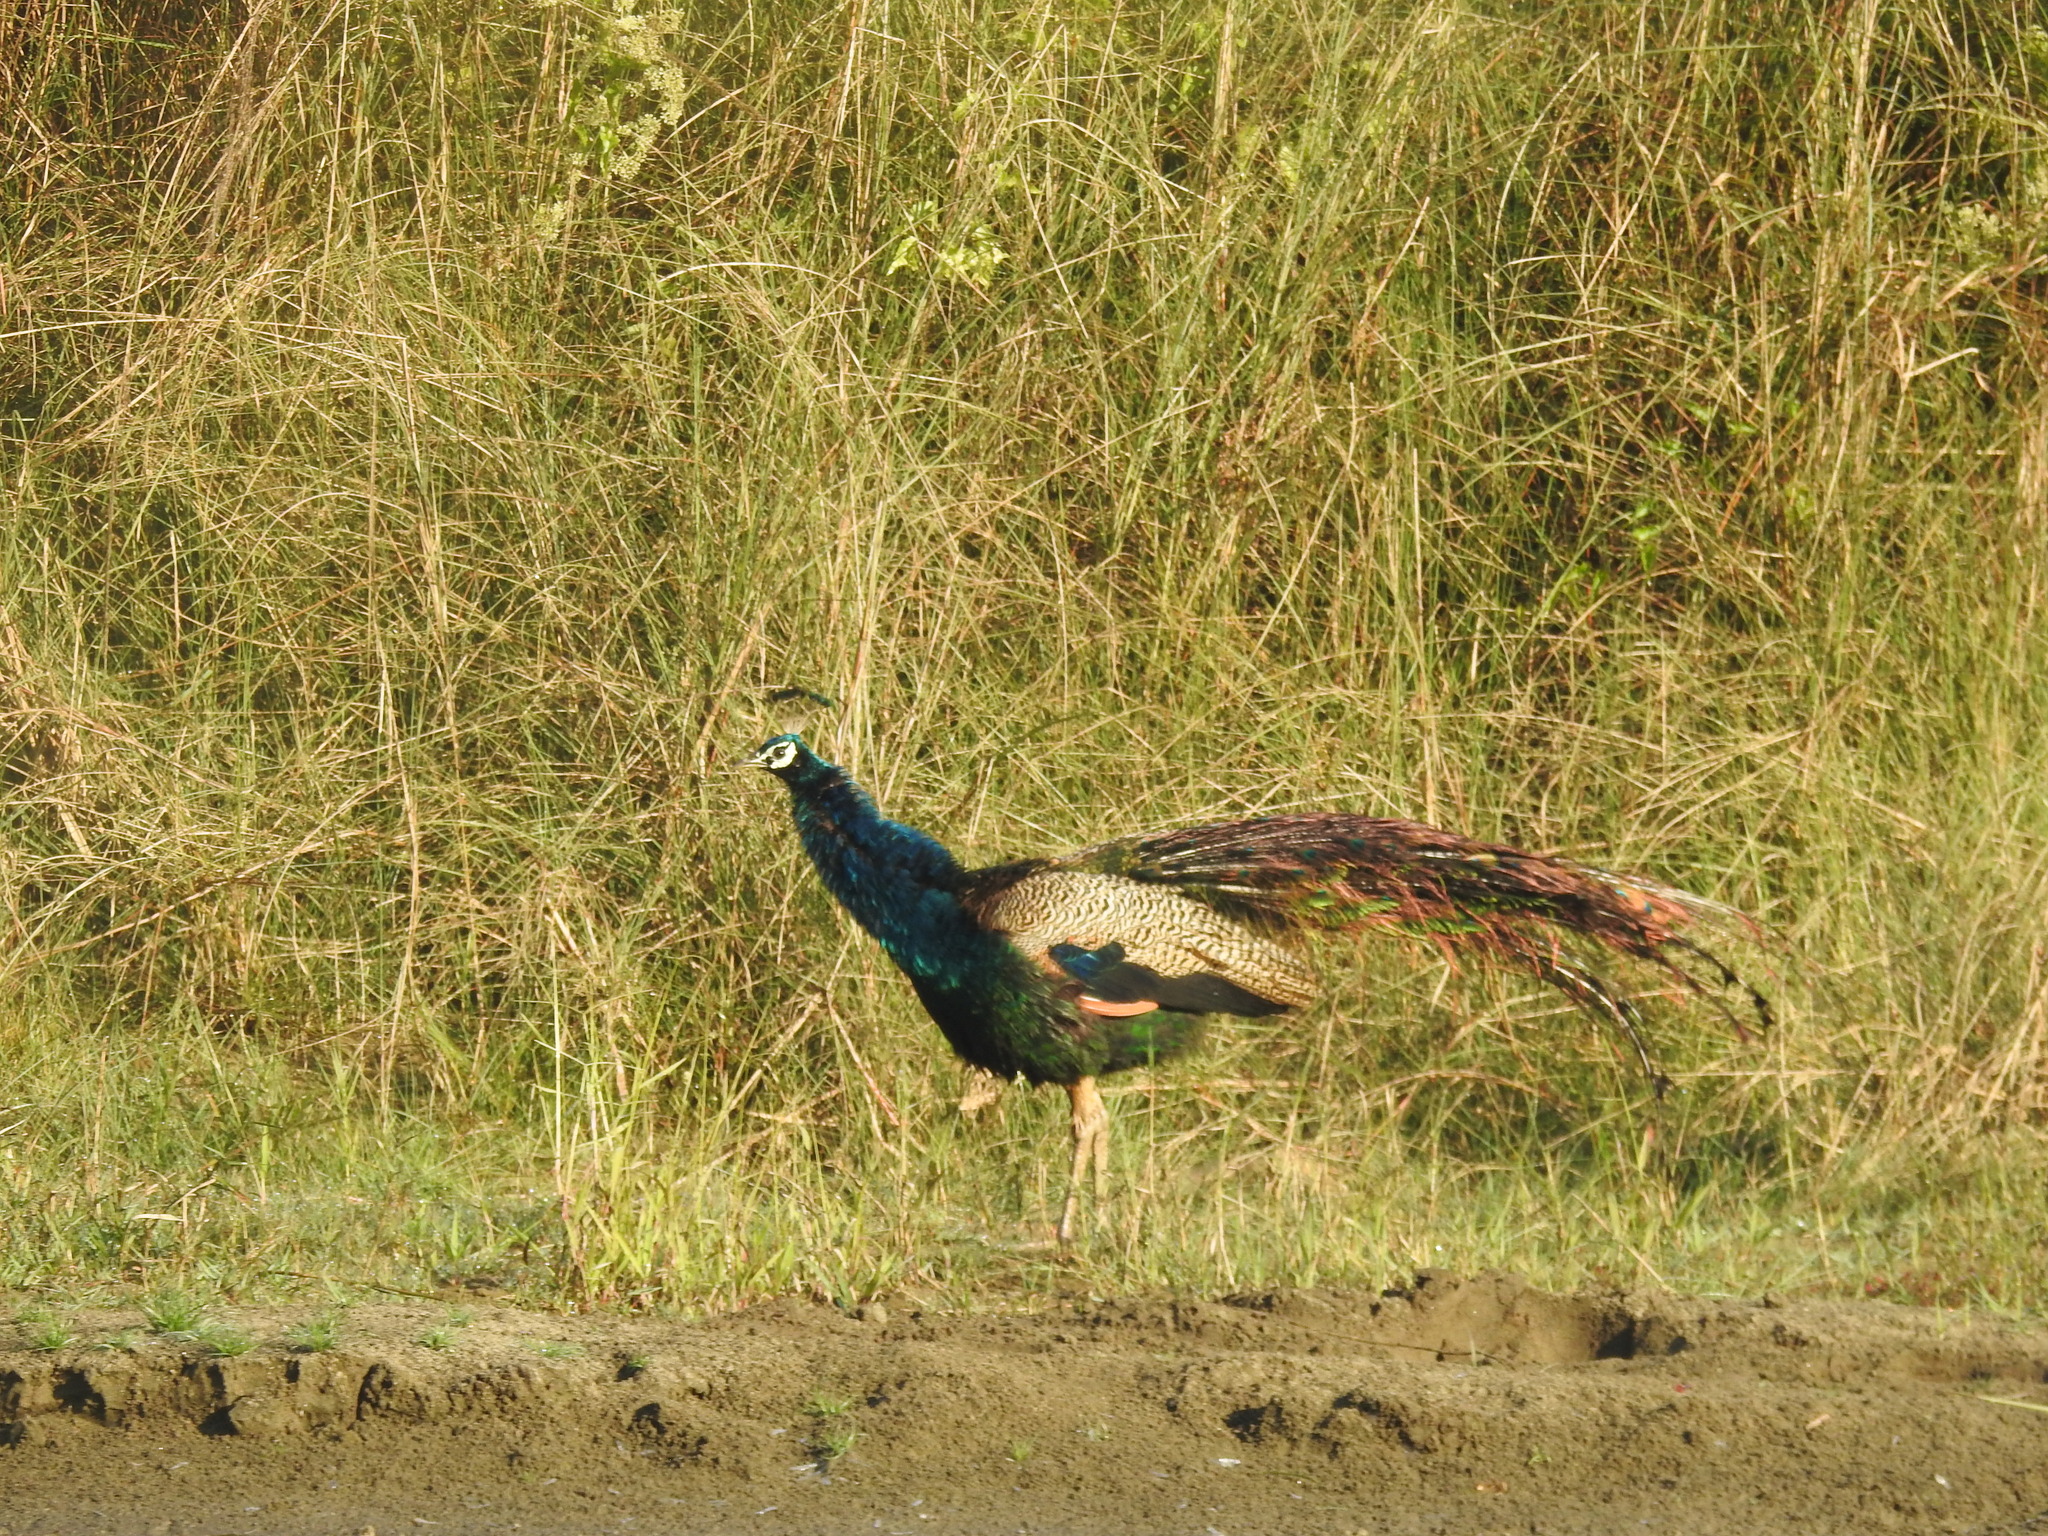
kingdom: Animalia
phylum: Chordata
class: Aves
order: Galliformes
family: Phasianidae
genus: Pavo
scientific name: Pavo cristatus
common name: Indian peafowl
